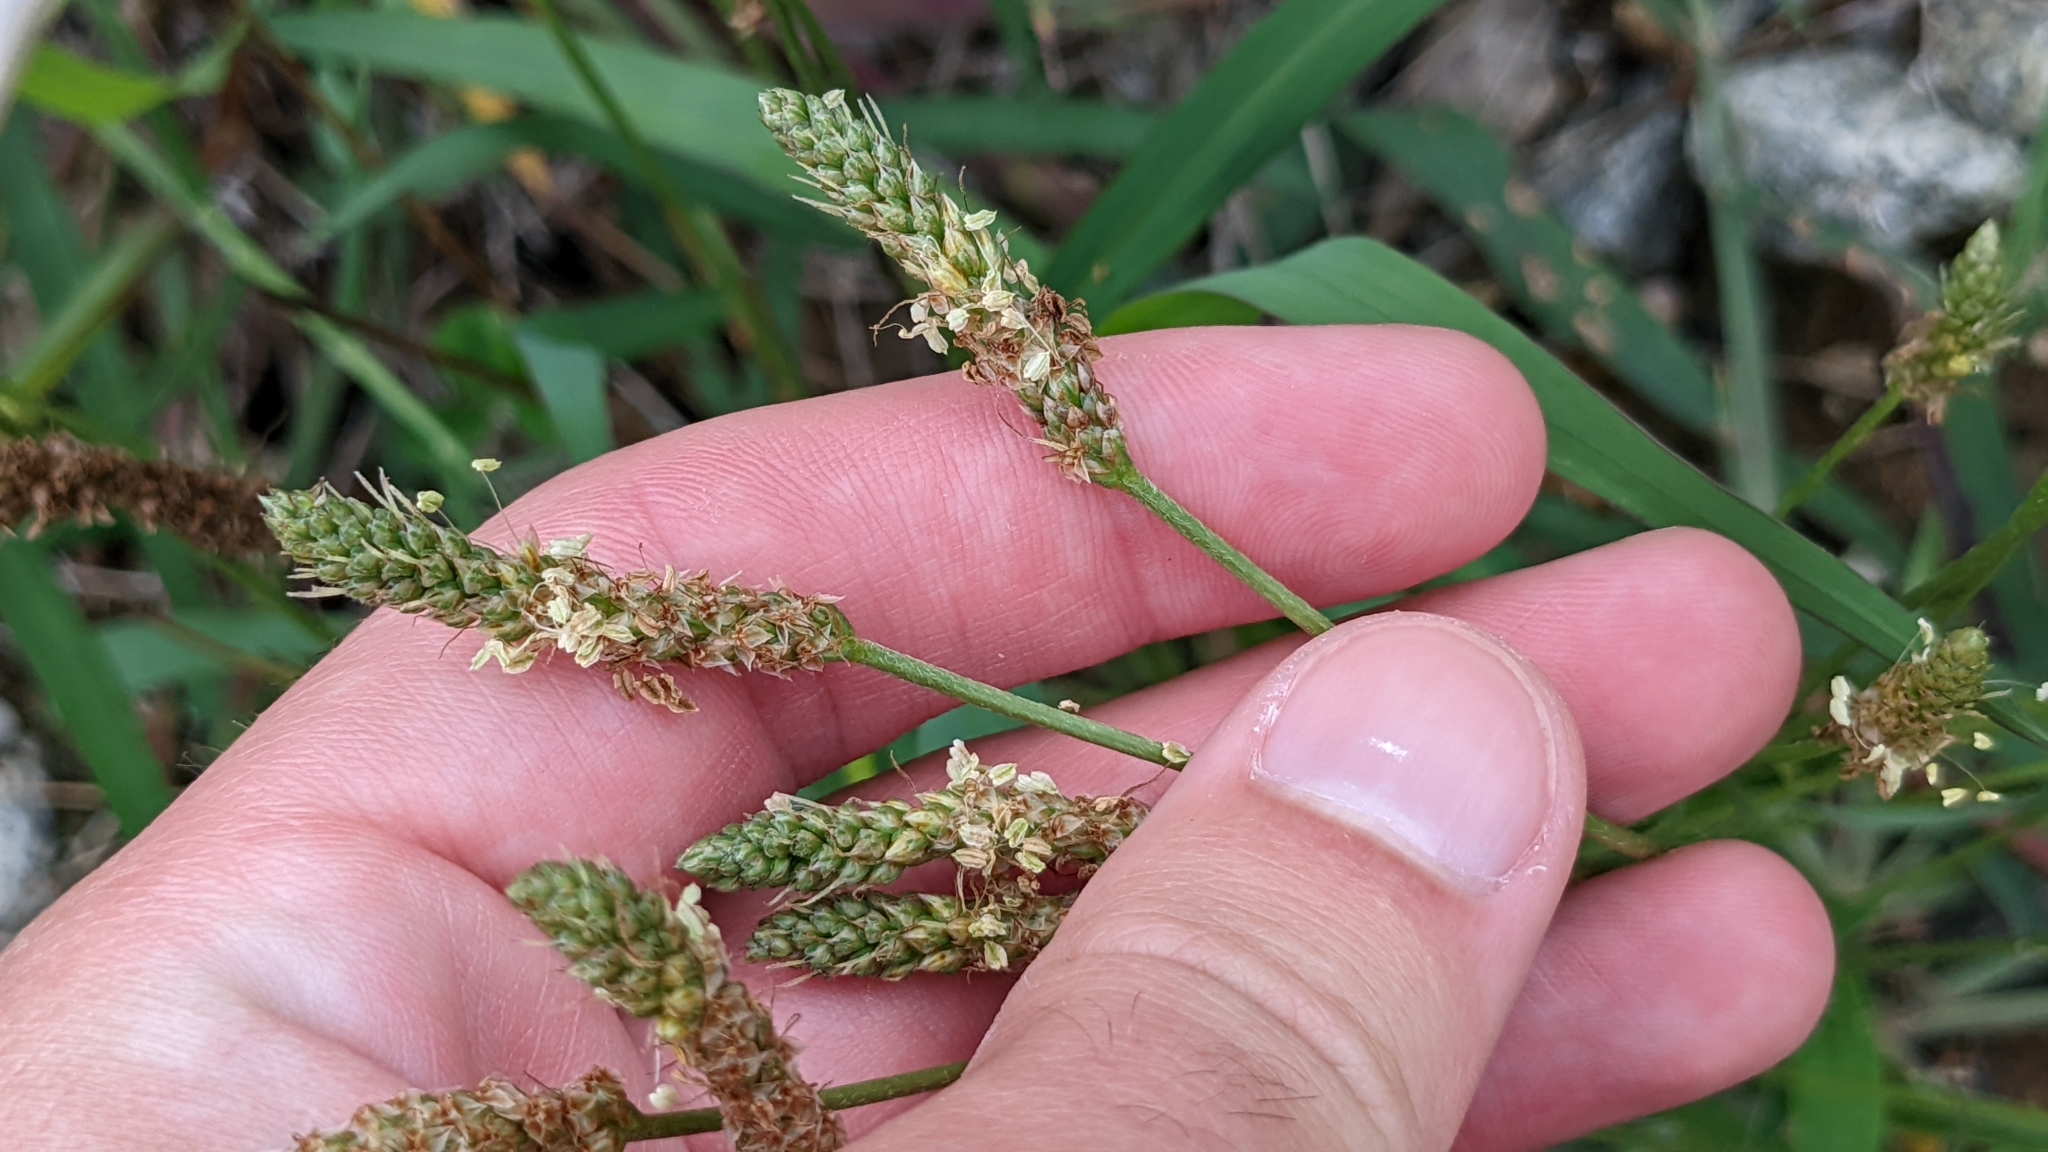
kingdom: Plantae
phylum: Tracheophyta
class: Magnoliopsida
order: Lamiales
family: Plantaginaceae
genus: Plantago
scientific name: Plantago lanceolata
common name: Ribwort plantain
